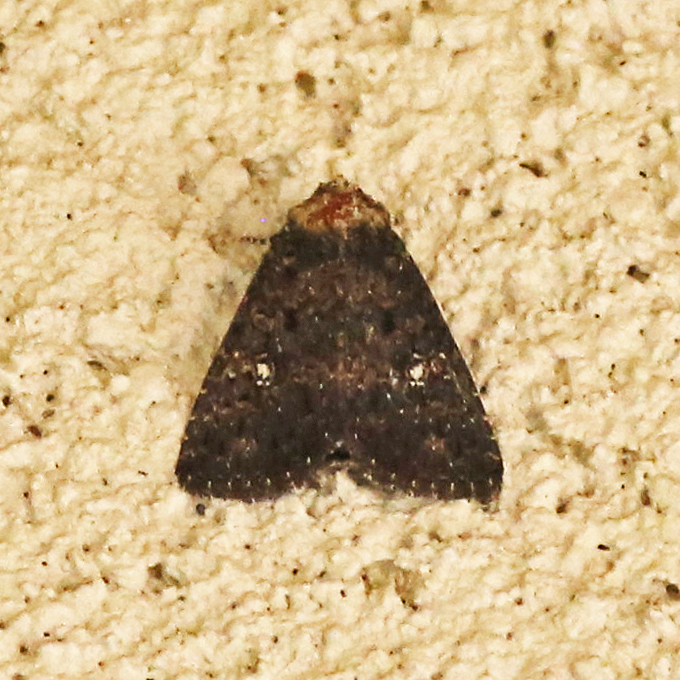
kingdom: Animalia
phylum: Arthropoda
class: Insecta
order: Lepidoptera
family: Noctuidae
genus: Condica
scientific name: Condica vecors
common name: Dusky groundling
